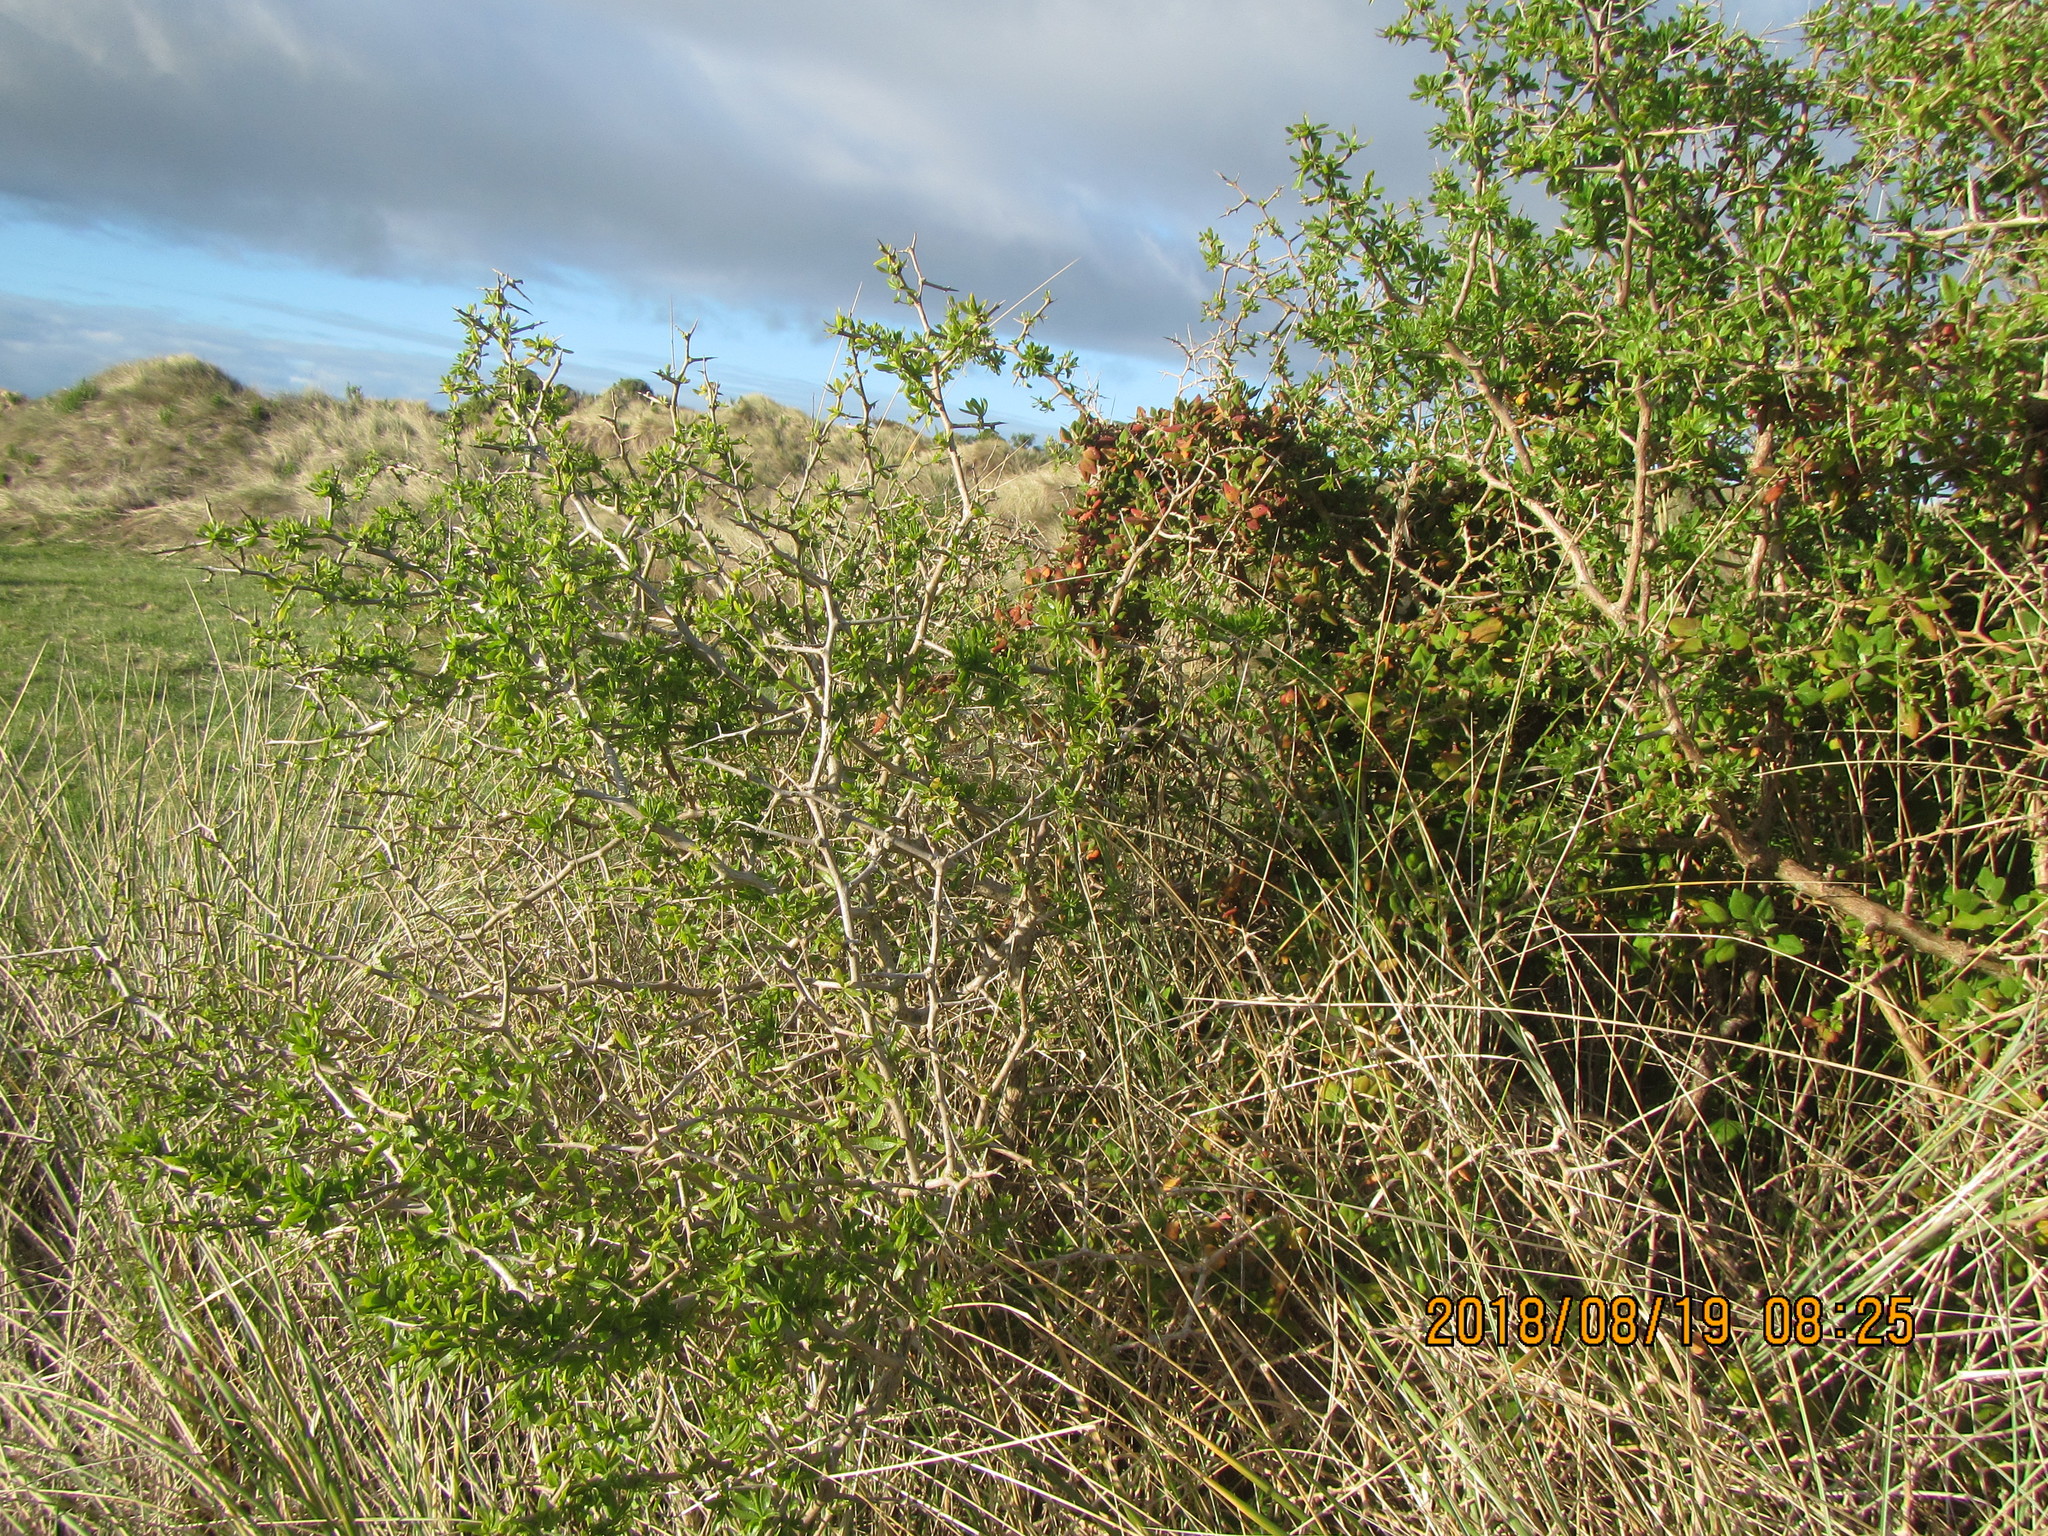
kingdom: Plantae
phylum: Tracheophyta
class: Magnoliopsida
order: Caryophyllales
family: Aizoaceae
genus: Tetragonia
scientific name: Tetragonia implexicoma
